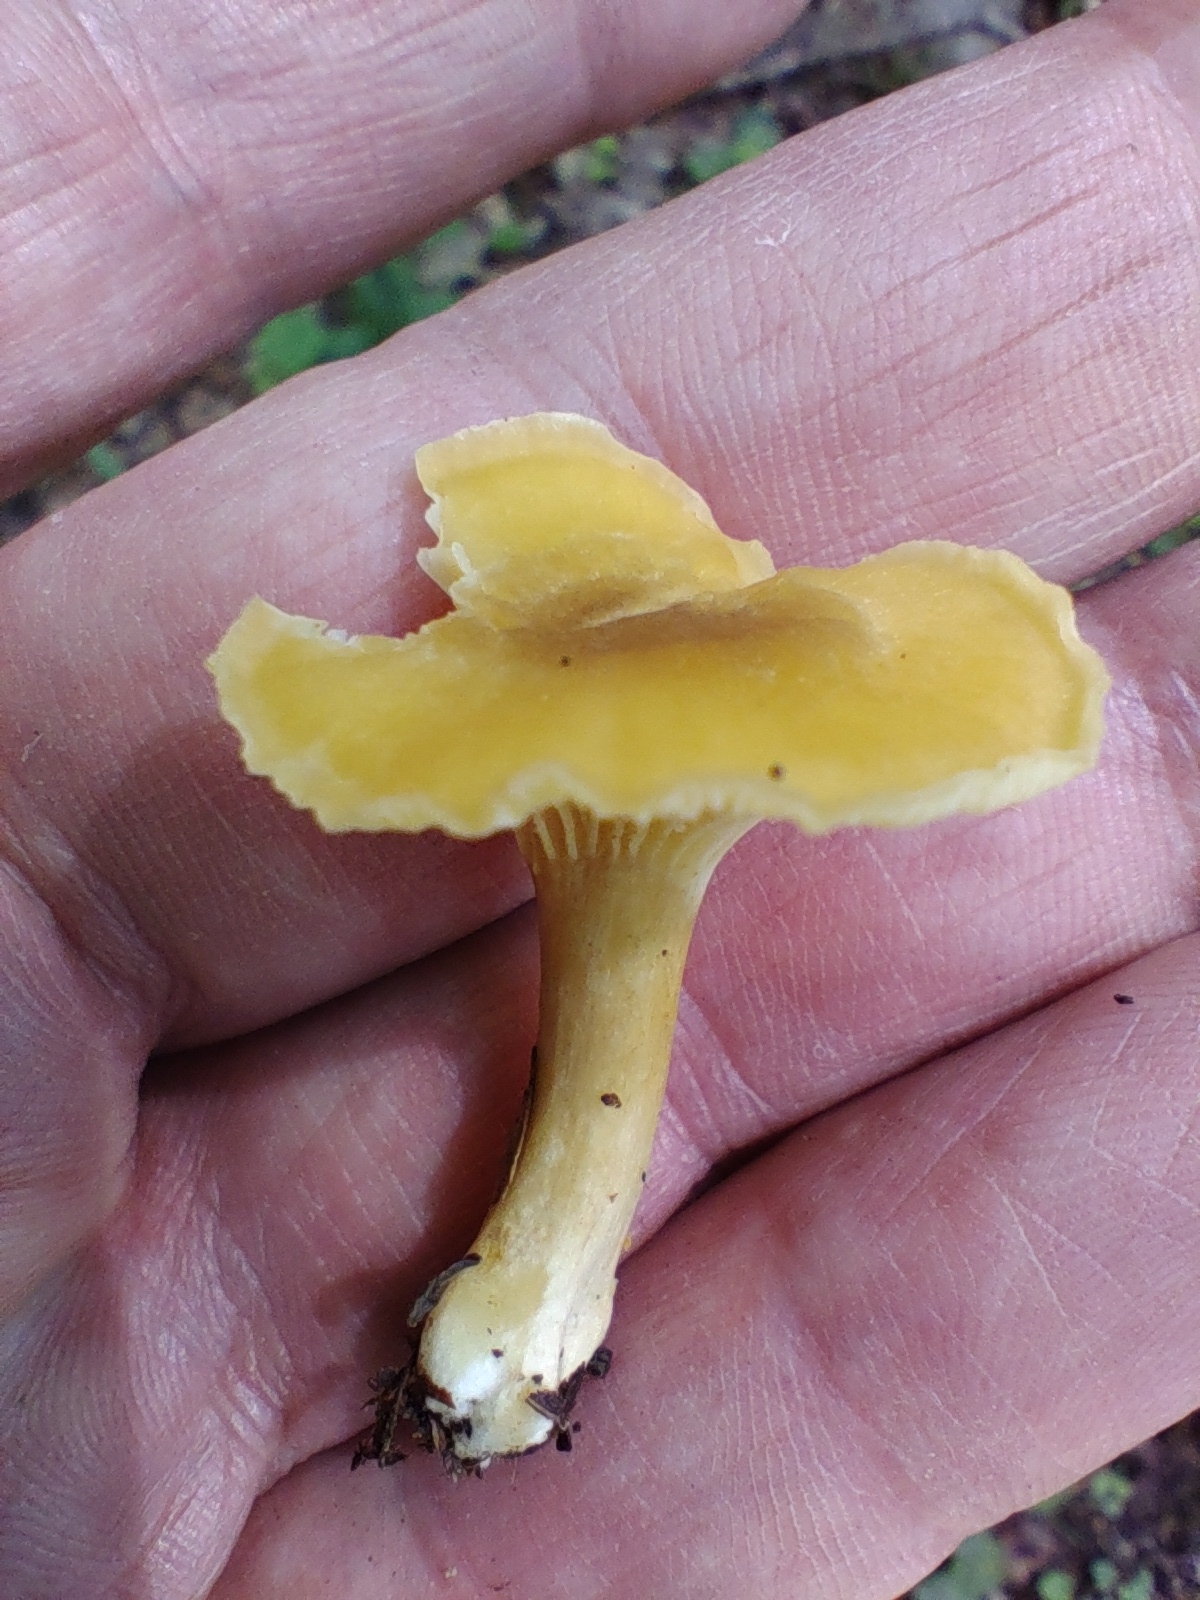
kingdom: Fungi
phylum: Basidiomycota
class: Agaricomycetes
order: Cantharellales
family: Hydnaceae
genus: Cantharellus
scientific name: Cantharellus appalachiensis
